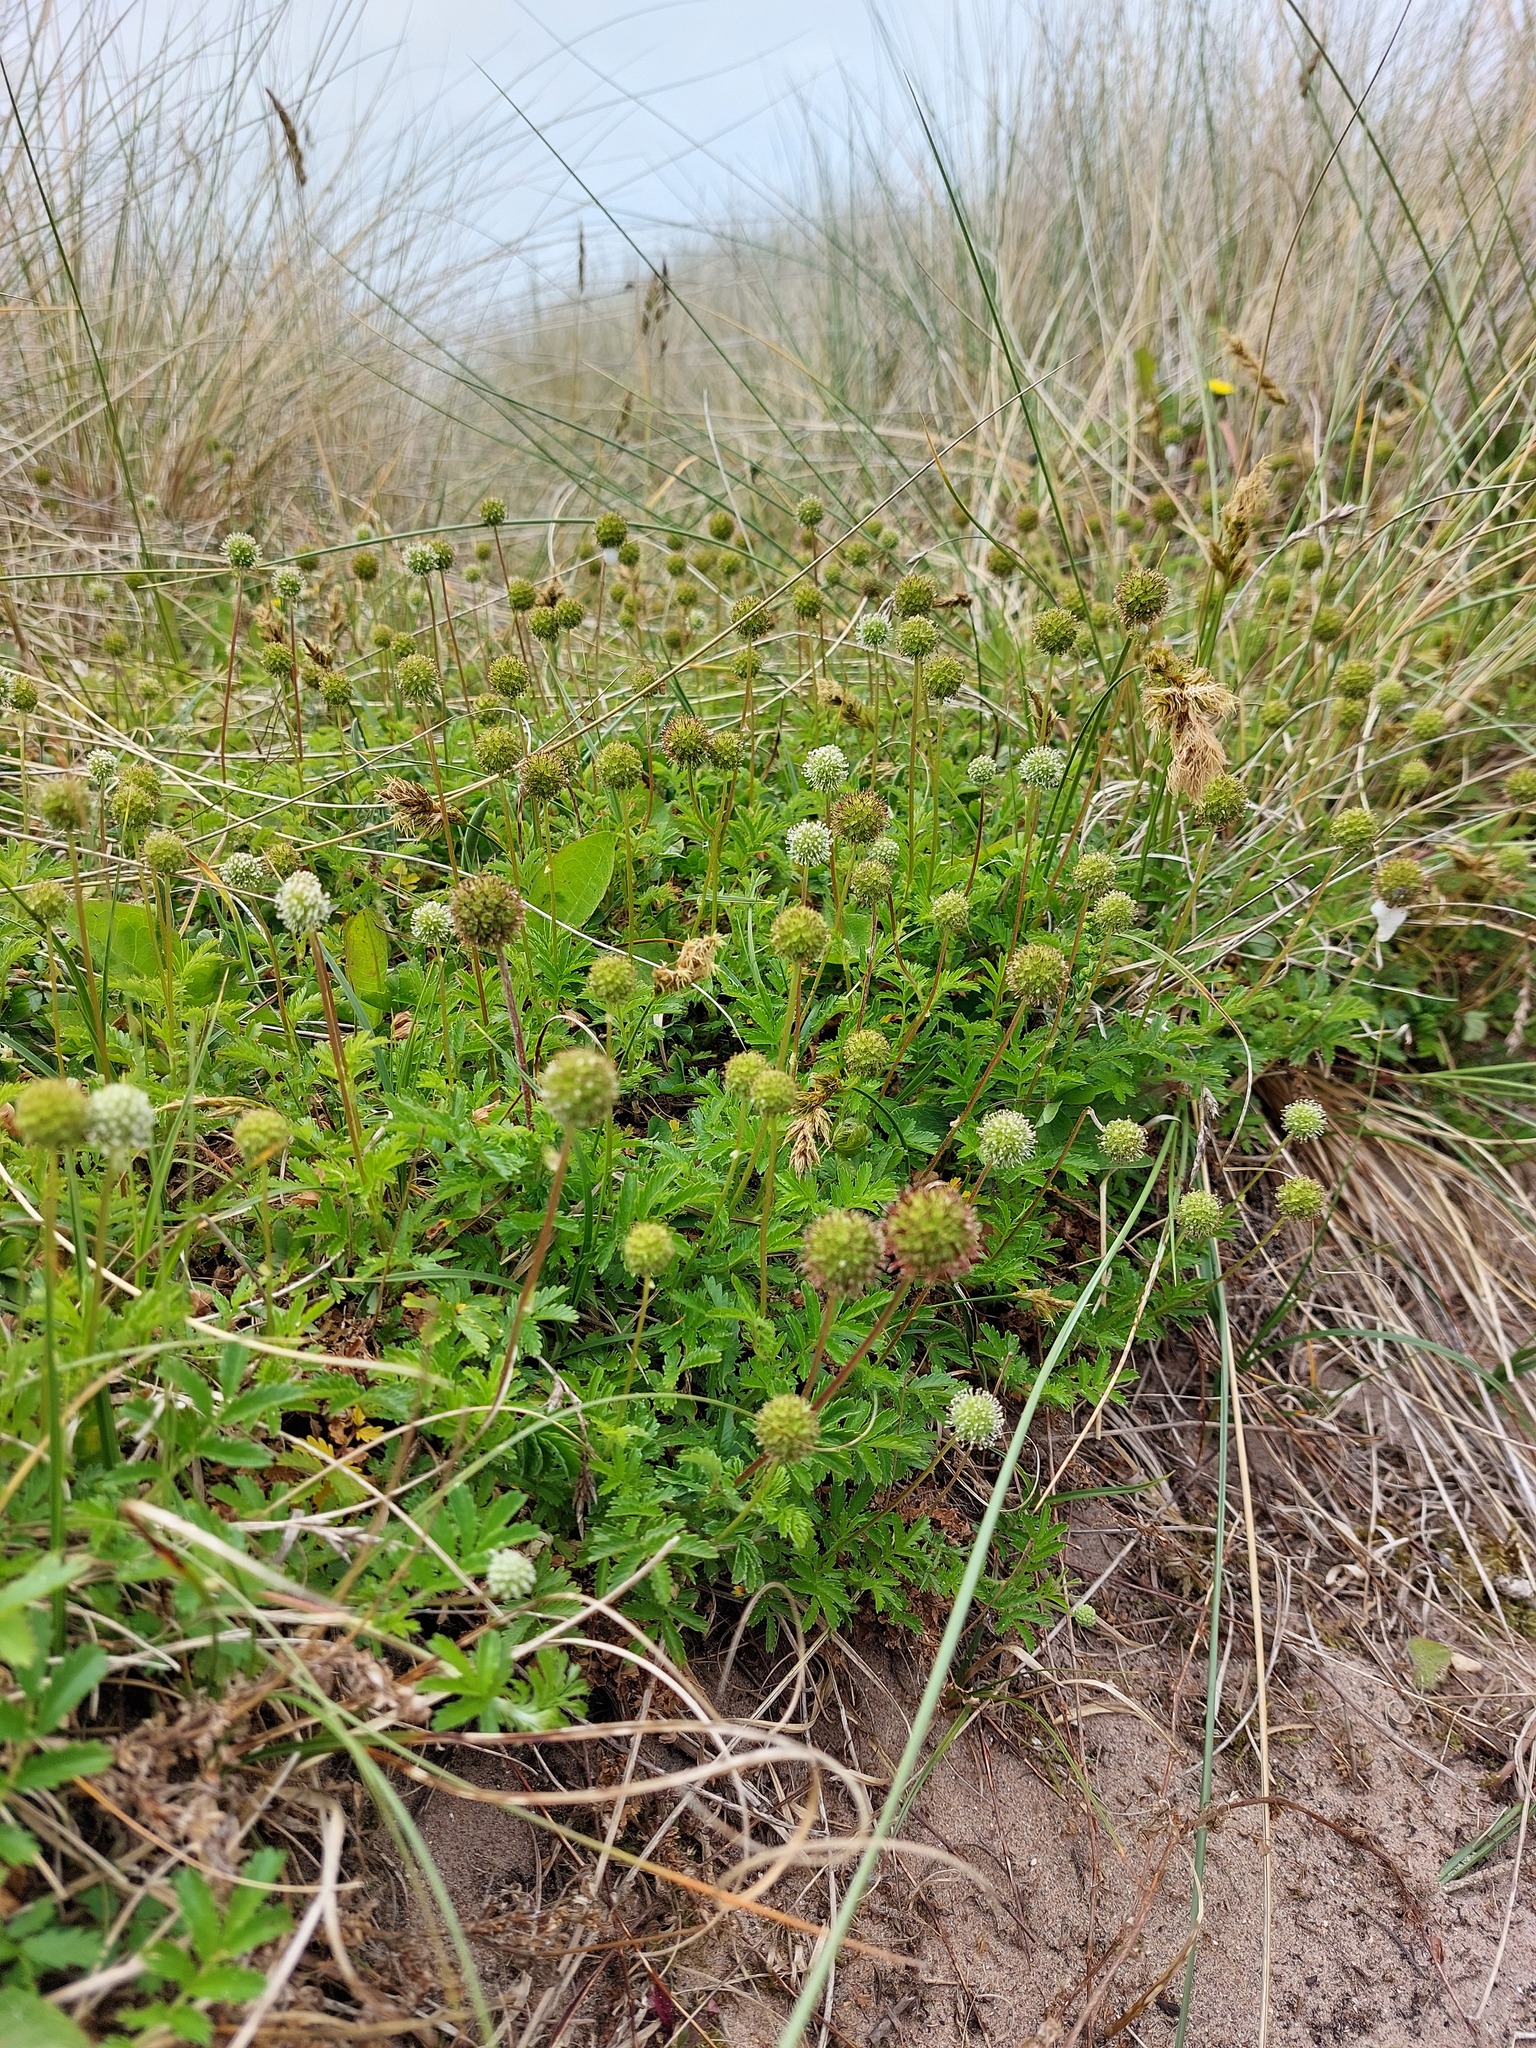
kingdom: Plantae
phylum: Tracheophyta
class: Magnoliopsida
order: Rosales
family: Rosaceae
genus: Acaena
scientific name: Acaena novae-zelandiae
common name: Pirri-pirri-bur
